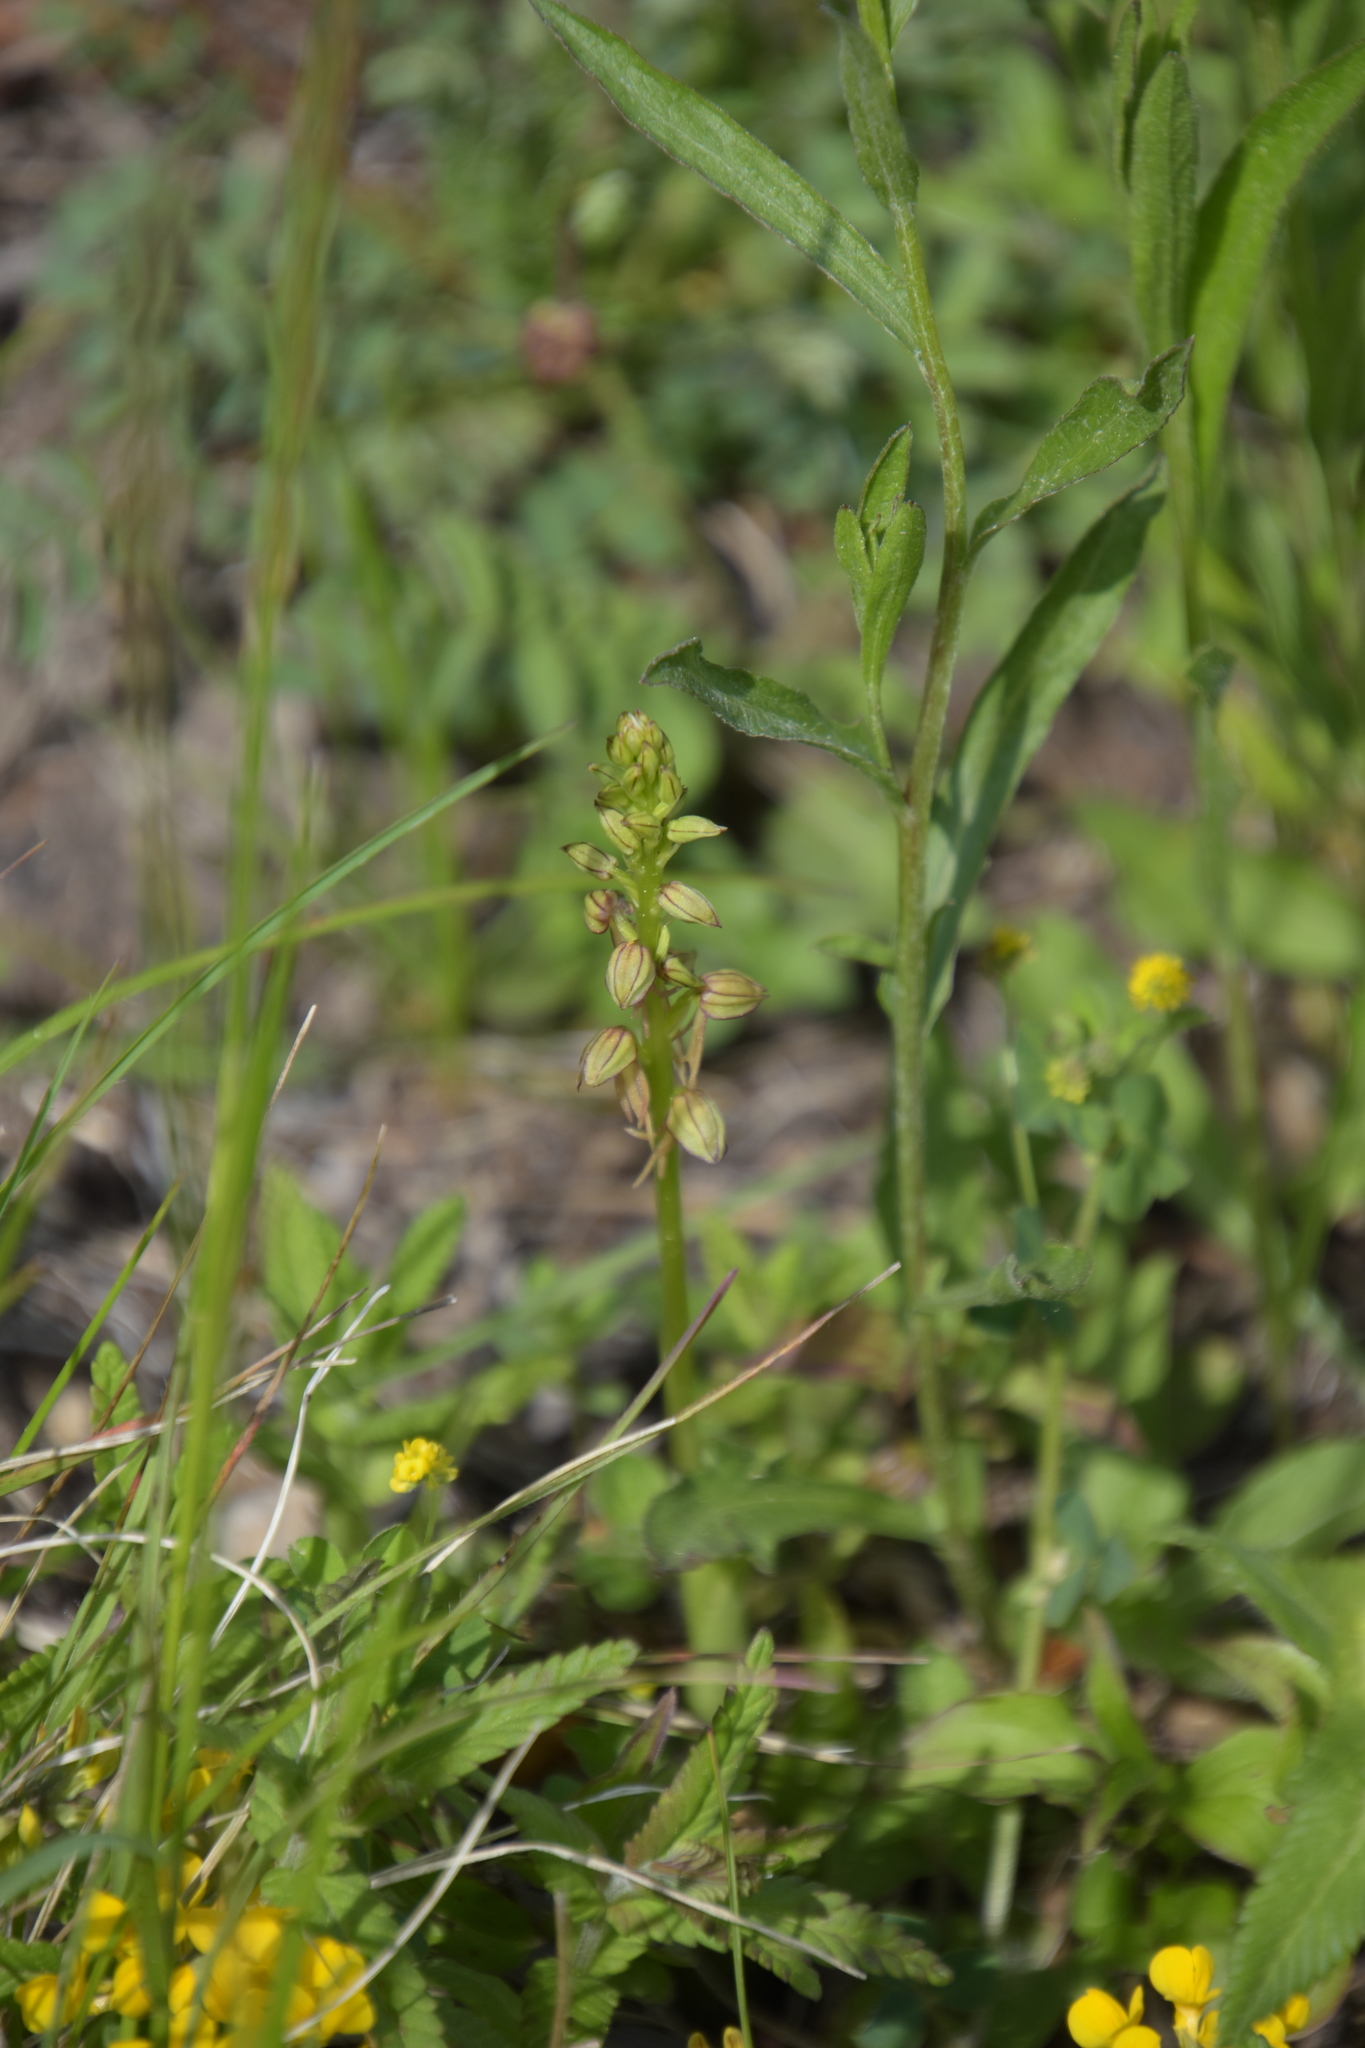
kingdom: Plantae
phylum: Tracheophyta
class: Liliopsida
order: Asparagales
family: Orchidaceae
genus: Orchis
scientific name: Orchis anthropophora
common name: Man orchid
